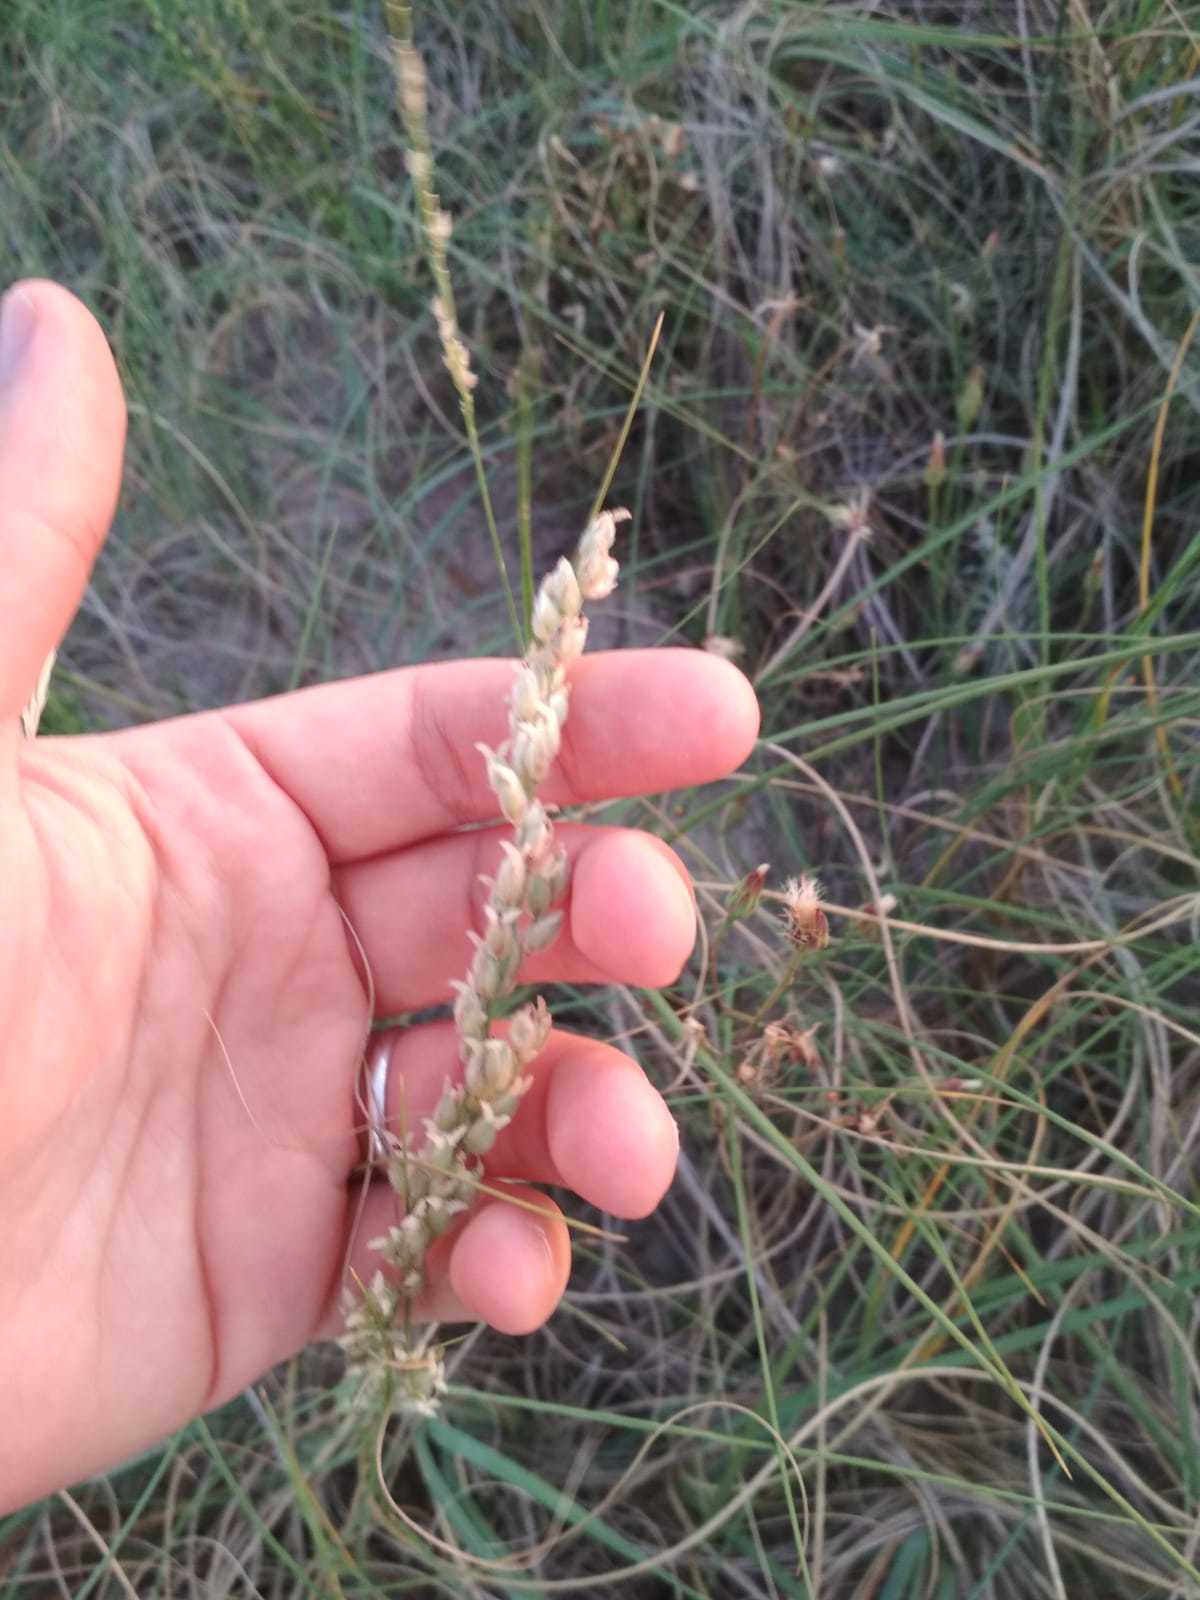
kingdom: Plantae
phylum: Tracheophyta
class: Liliopsida
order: Poales
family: Poaceae
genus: Panicum
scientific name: Panicum racemosum
